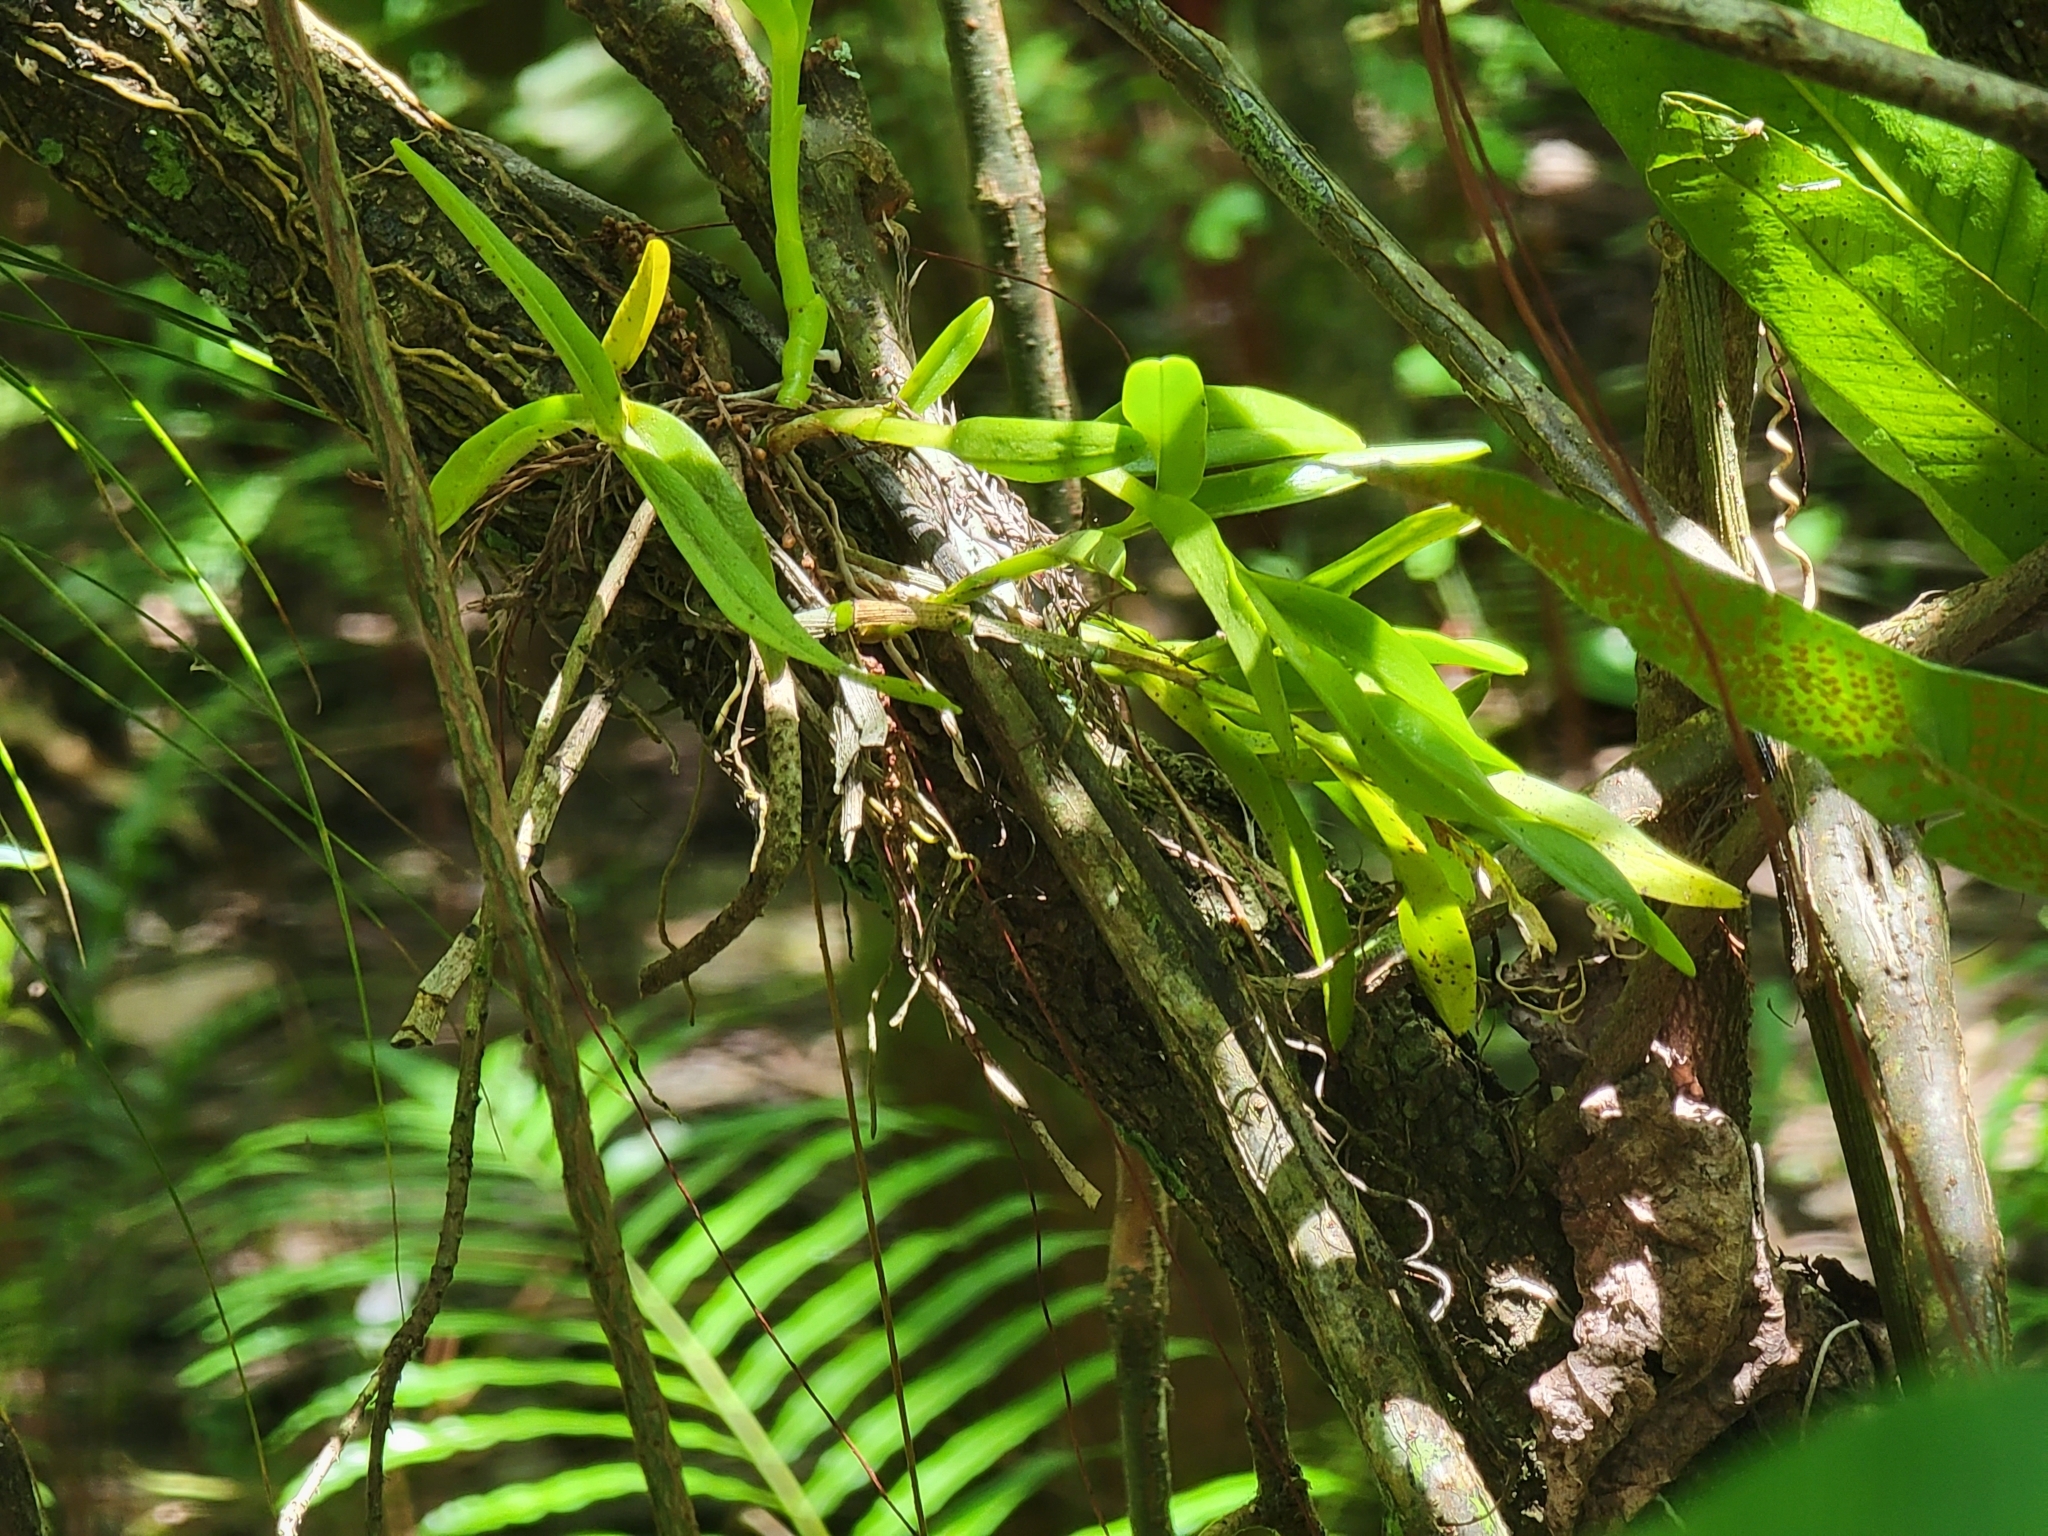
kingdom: Plantae
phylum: Tracheophyta
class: Liliopsida
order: Asparagales
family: Orchidaceae
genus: Epidendrum
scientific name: Epidendrum rigidum
